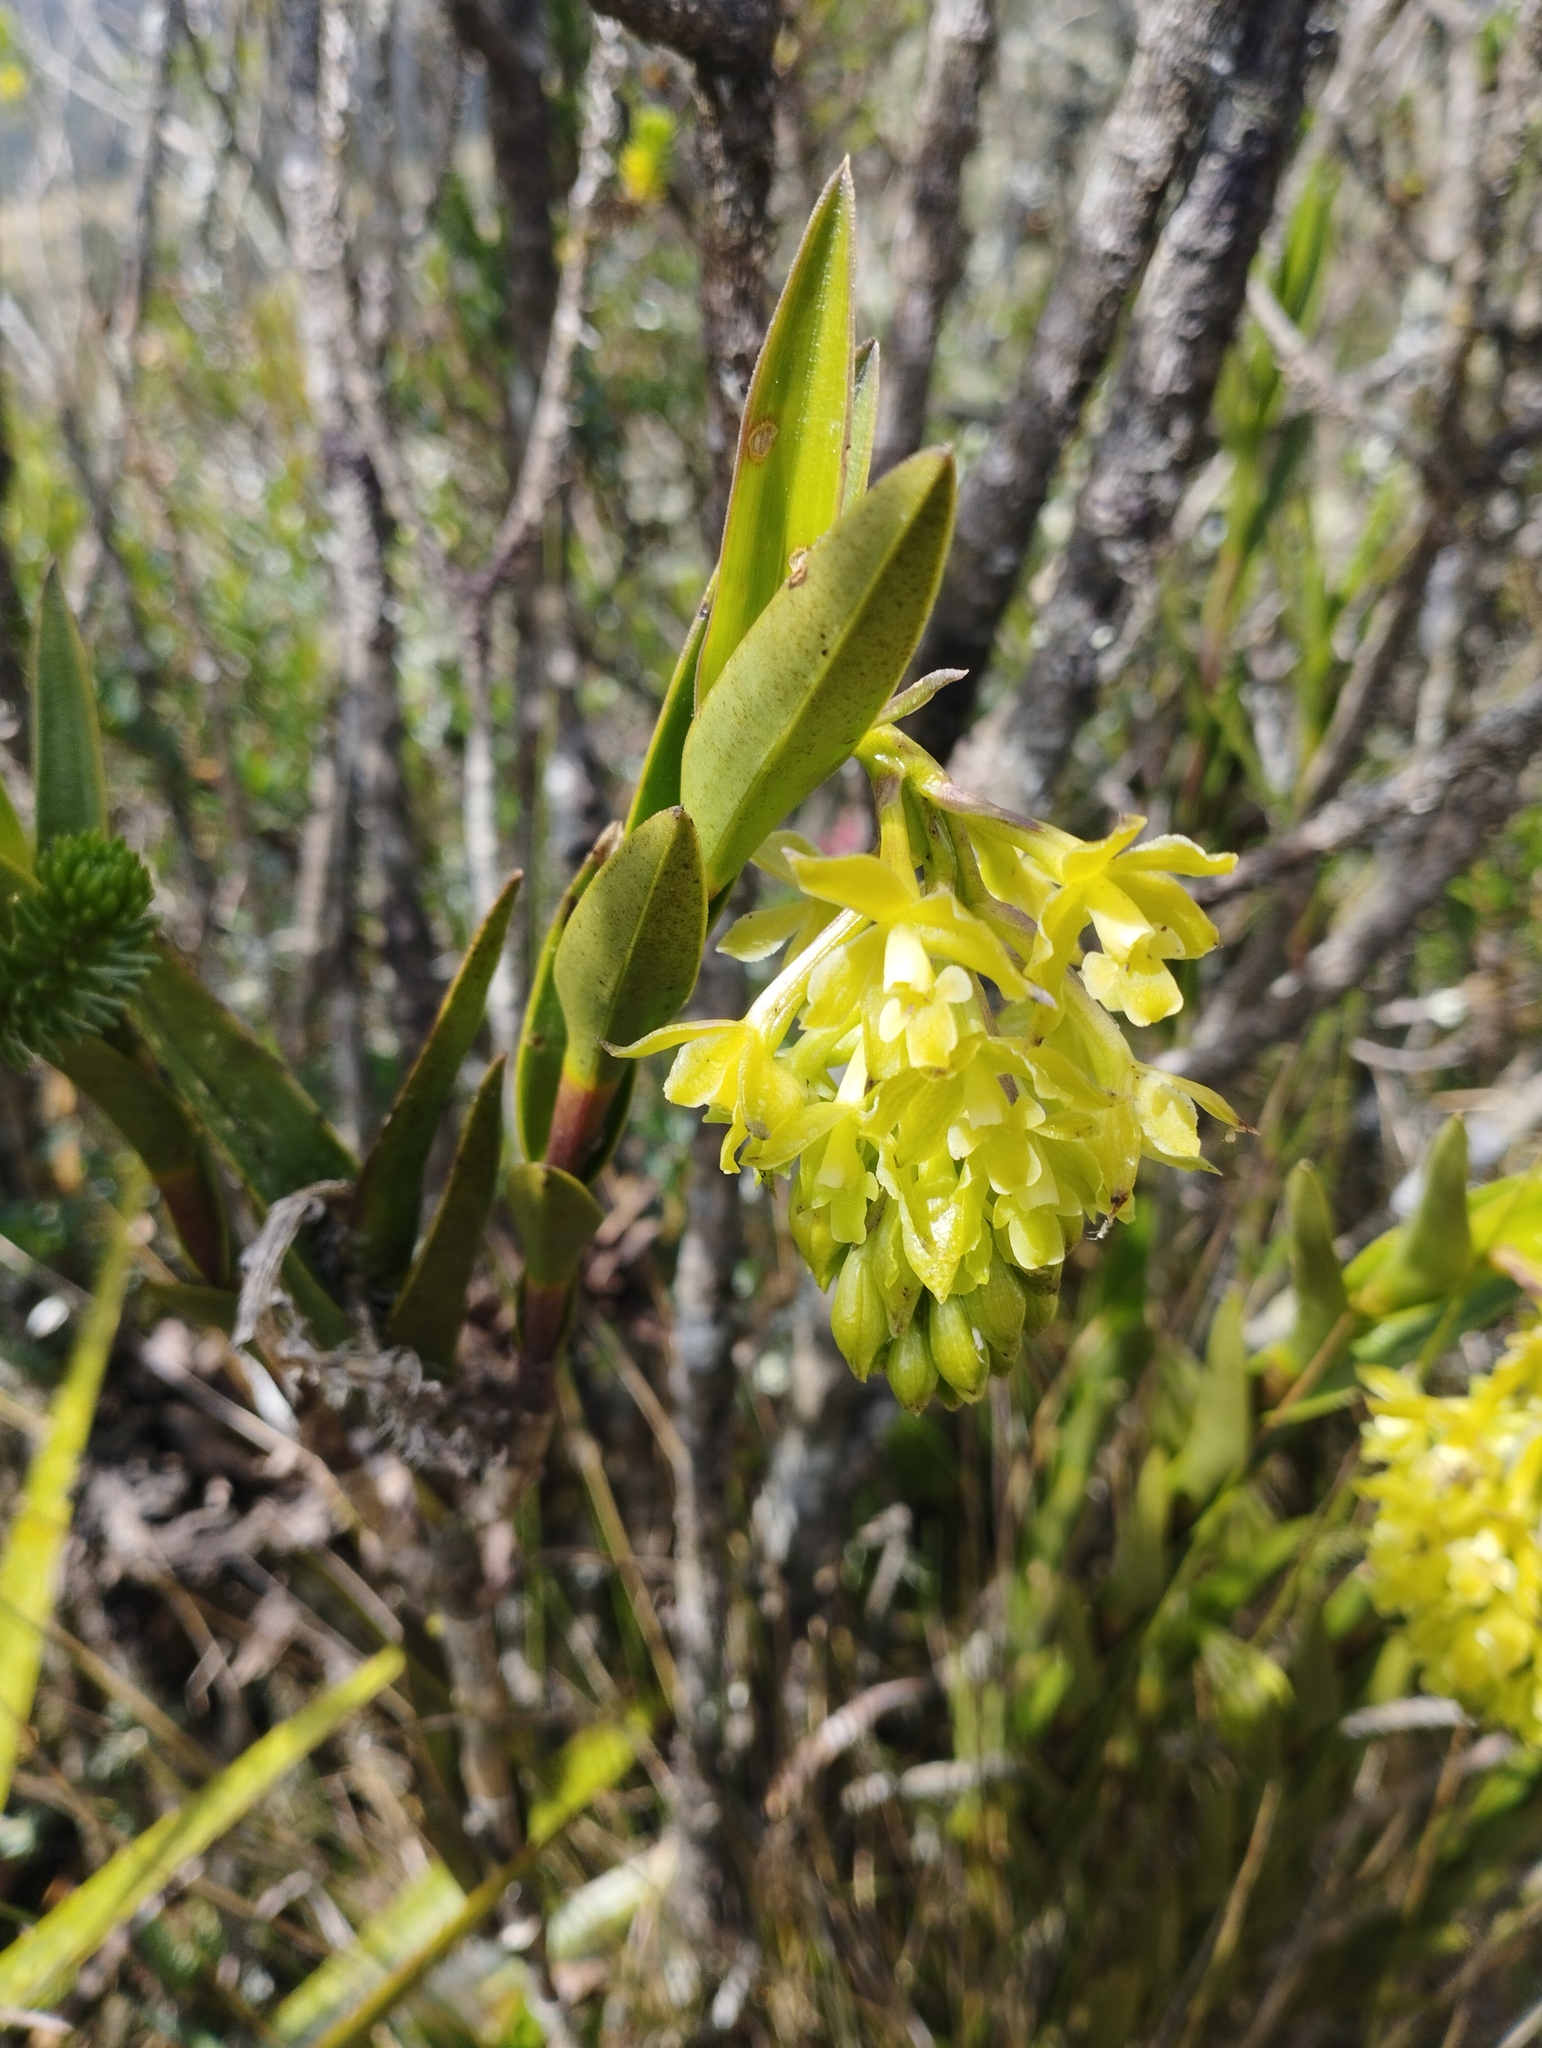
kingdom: Plantae
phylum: Tracheophyta
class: Liliopsida
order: Asparagales
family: Orchidaceae
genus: Epidendrum
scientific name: Epidendrum zipaquiranum
